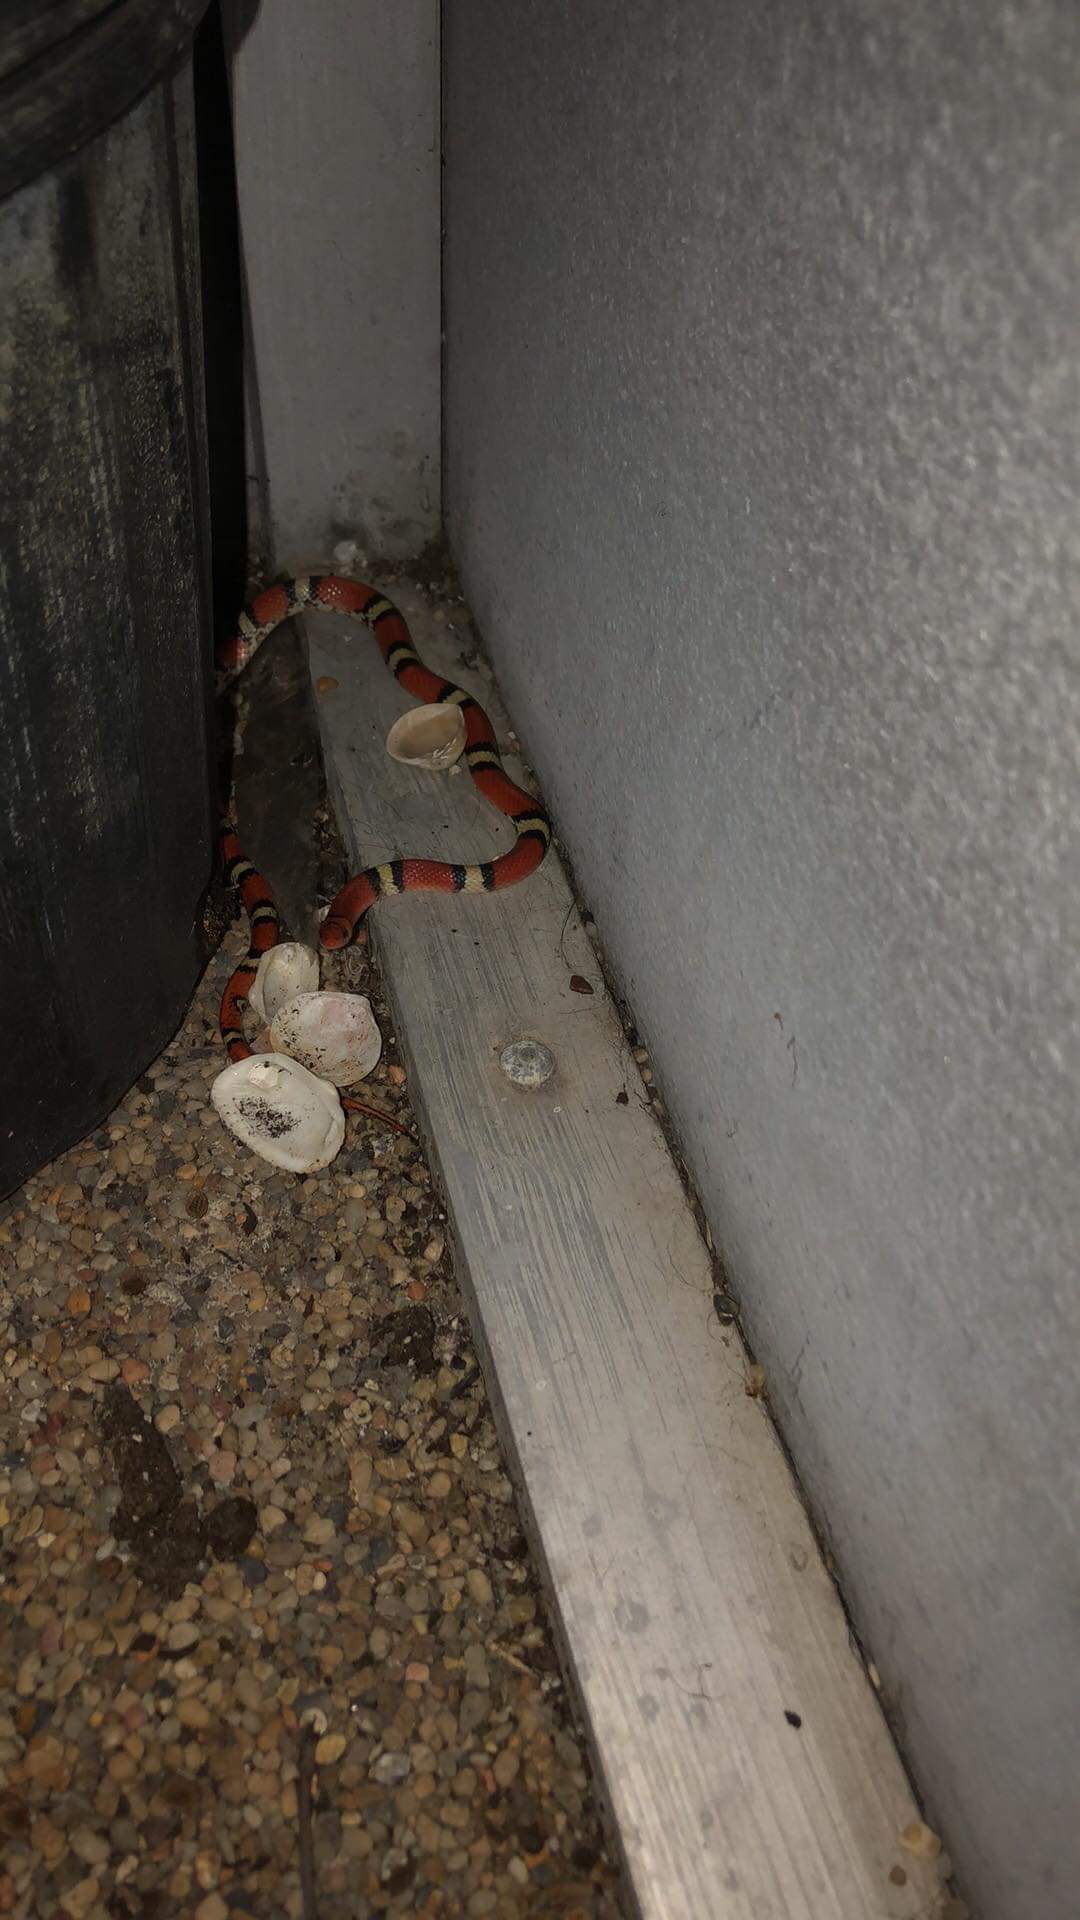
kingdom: Animalia
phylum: Chordata
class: Squamata
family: Colubridae
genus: Cemophora
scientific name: Cemophora coccinea
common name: Scarlet snake
